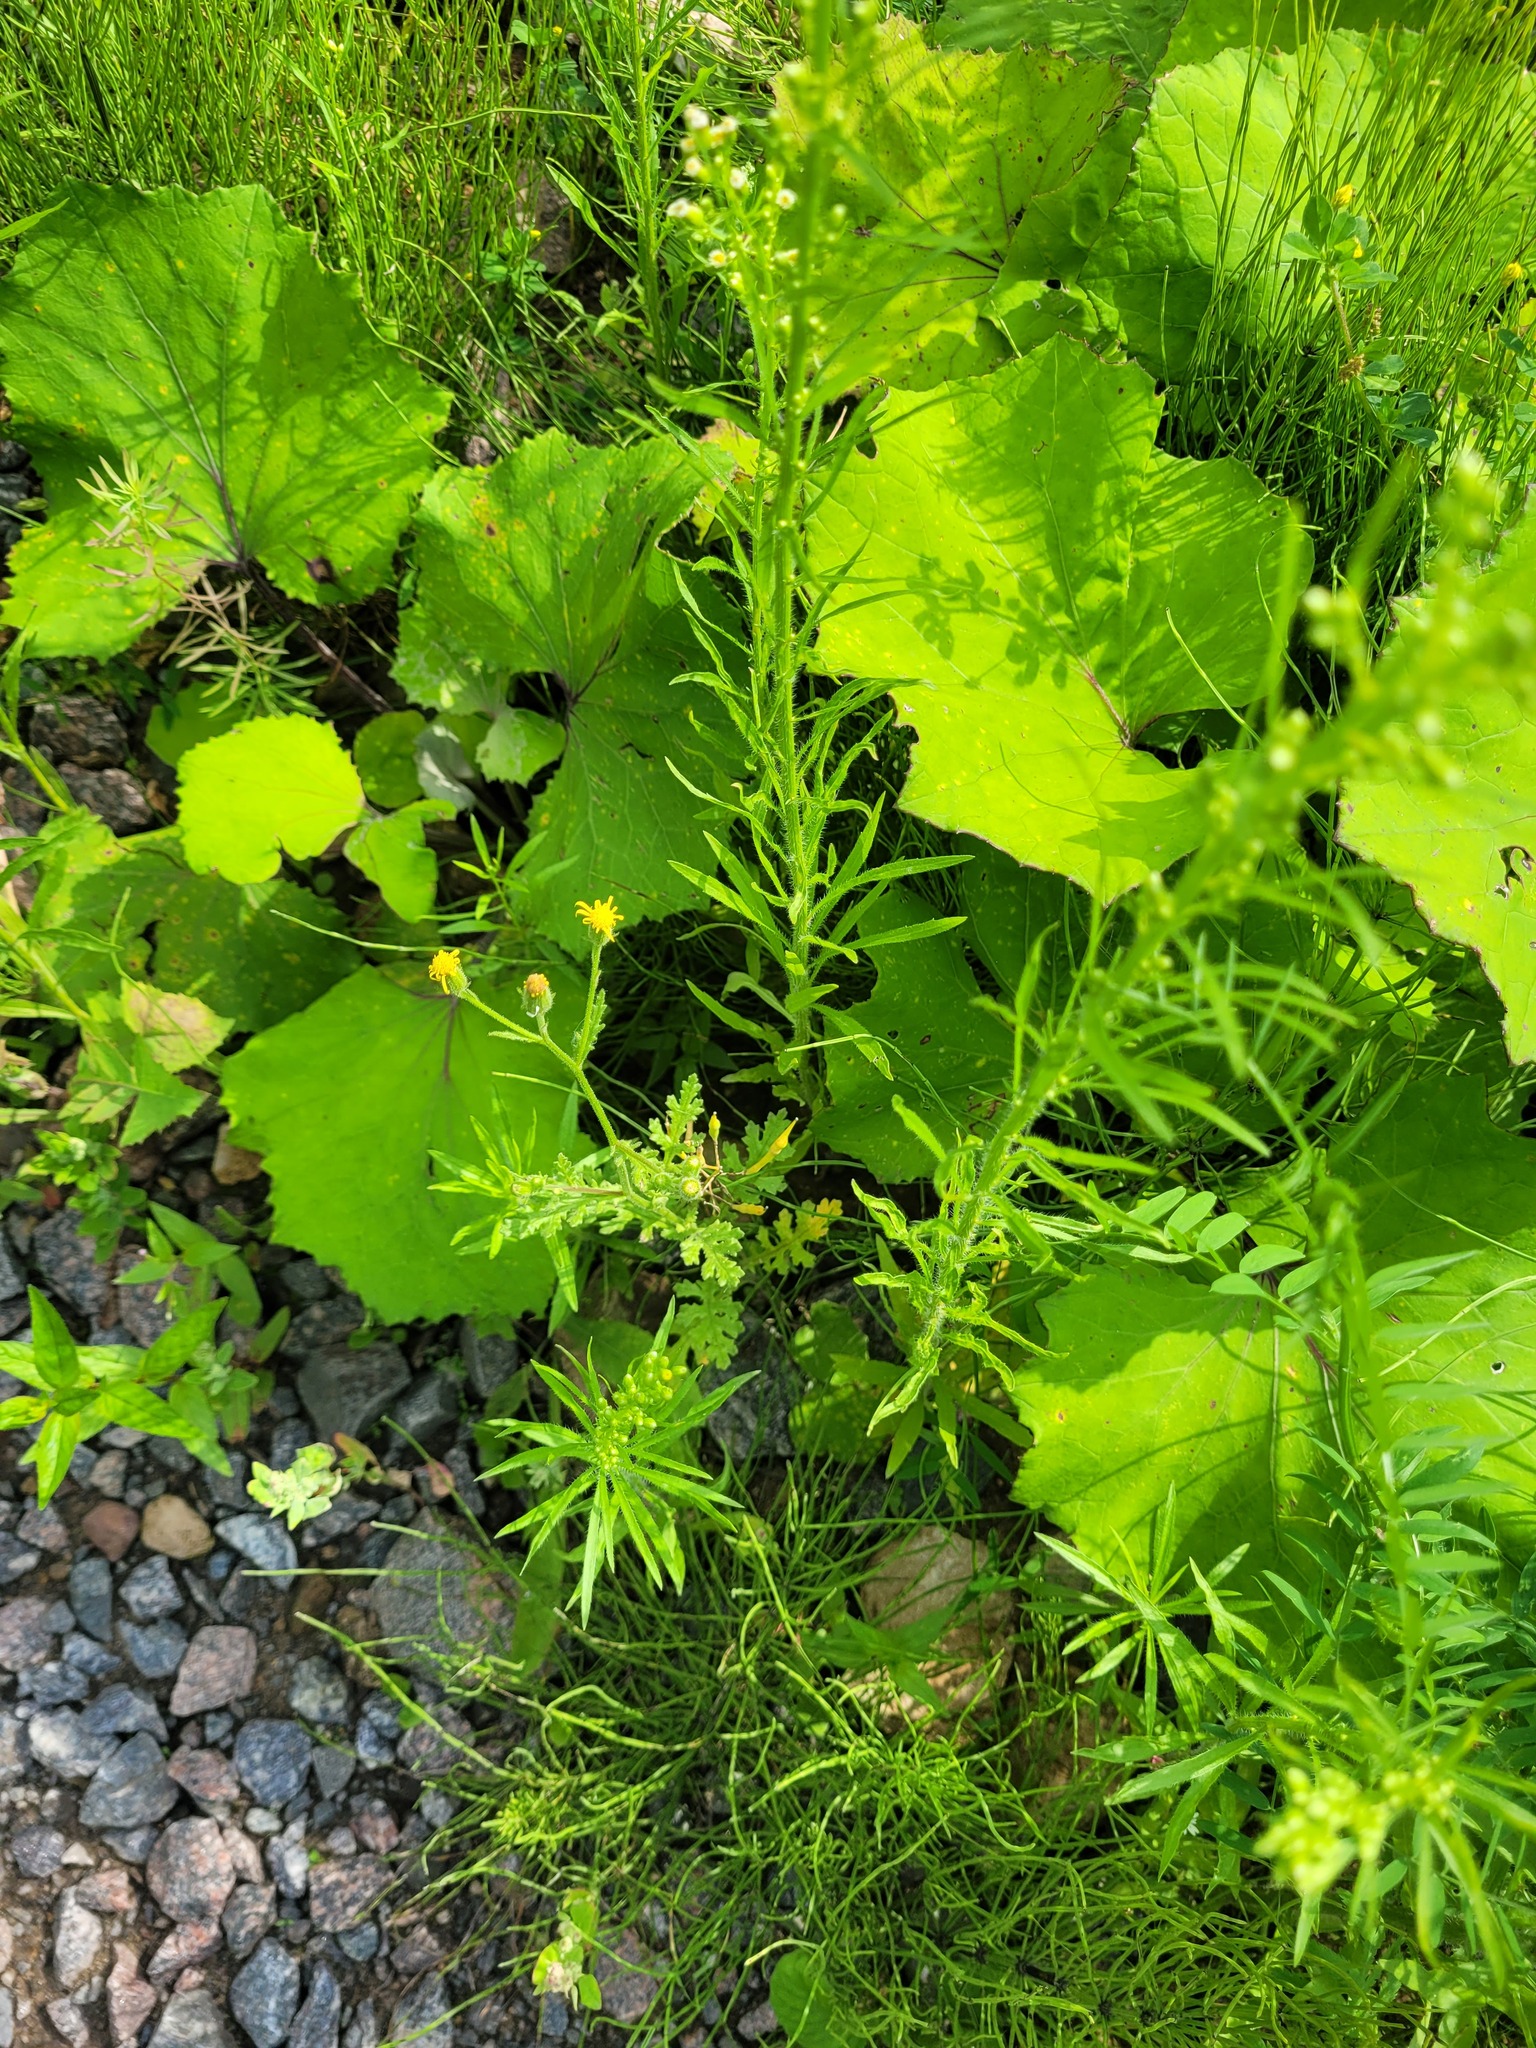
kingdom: Plantae
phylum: Tracheophyta
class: Magnoliopsida
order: Asterales
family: Asteraceae
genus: Senecio
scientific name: Senecio viscosus
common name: Sticky groundsel
